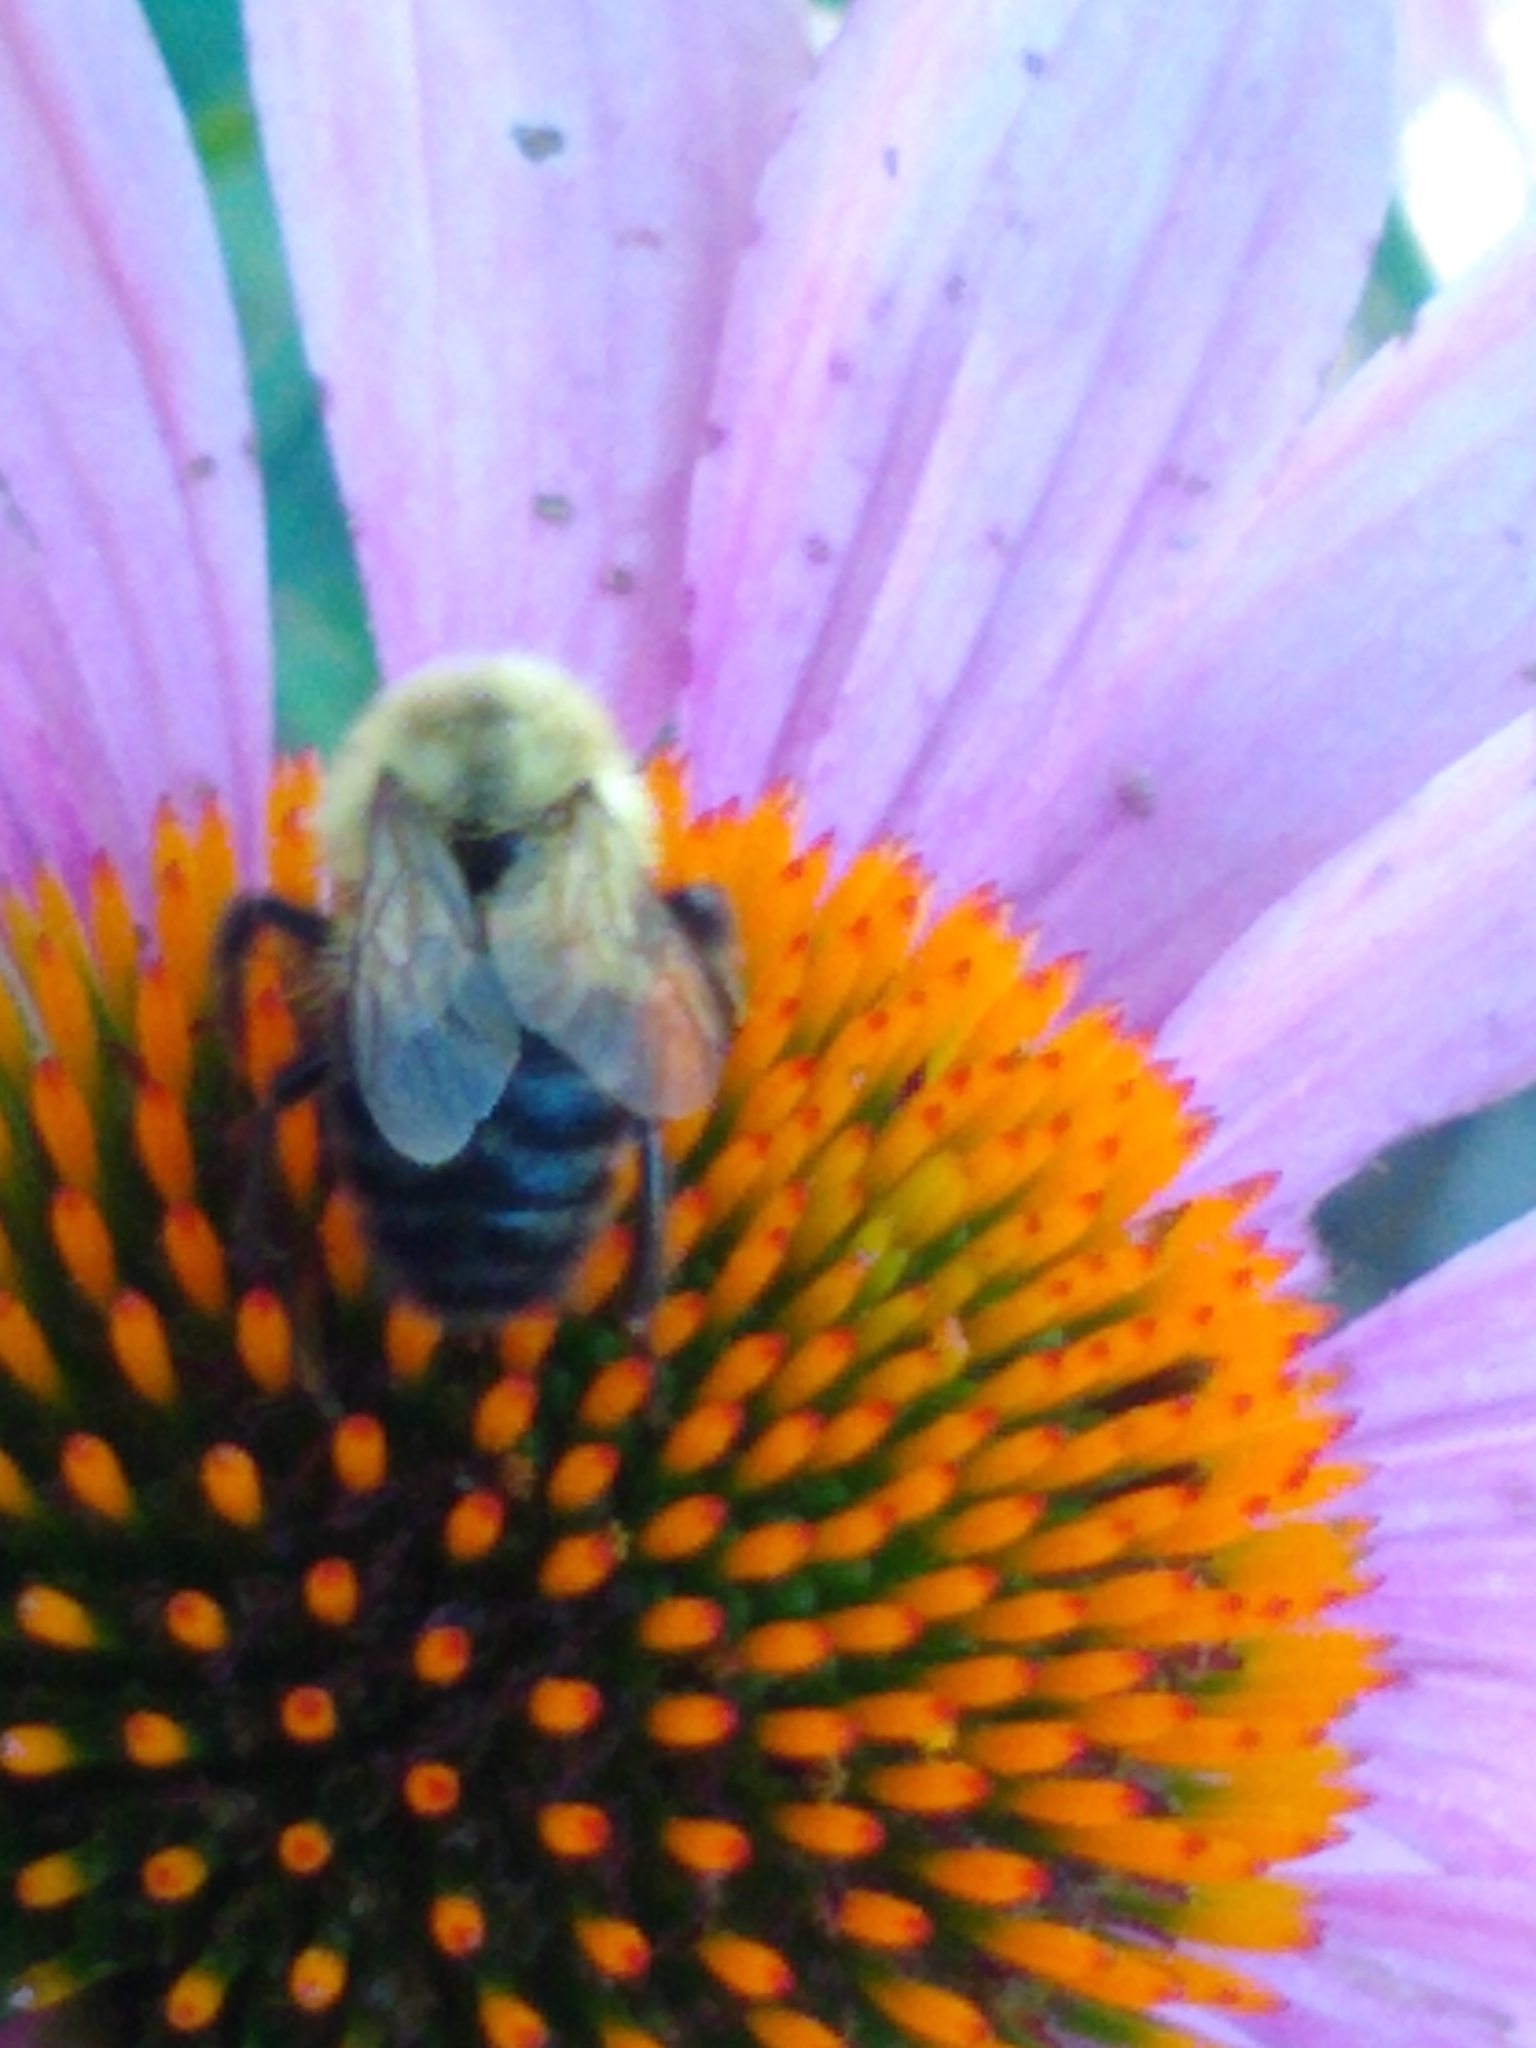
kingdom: Animalia
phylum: Arthropoda
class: Insecta
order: Hymenoptera
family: Apidae
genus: Bombus
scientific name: Bombus impatiens
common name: Common eastern bumble bee
